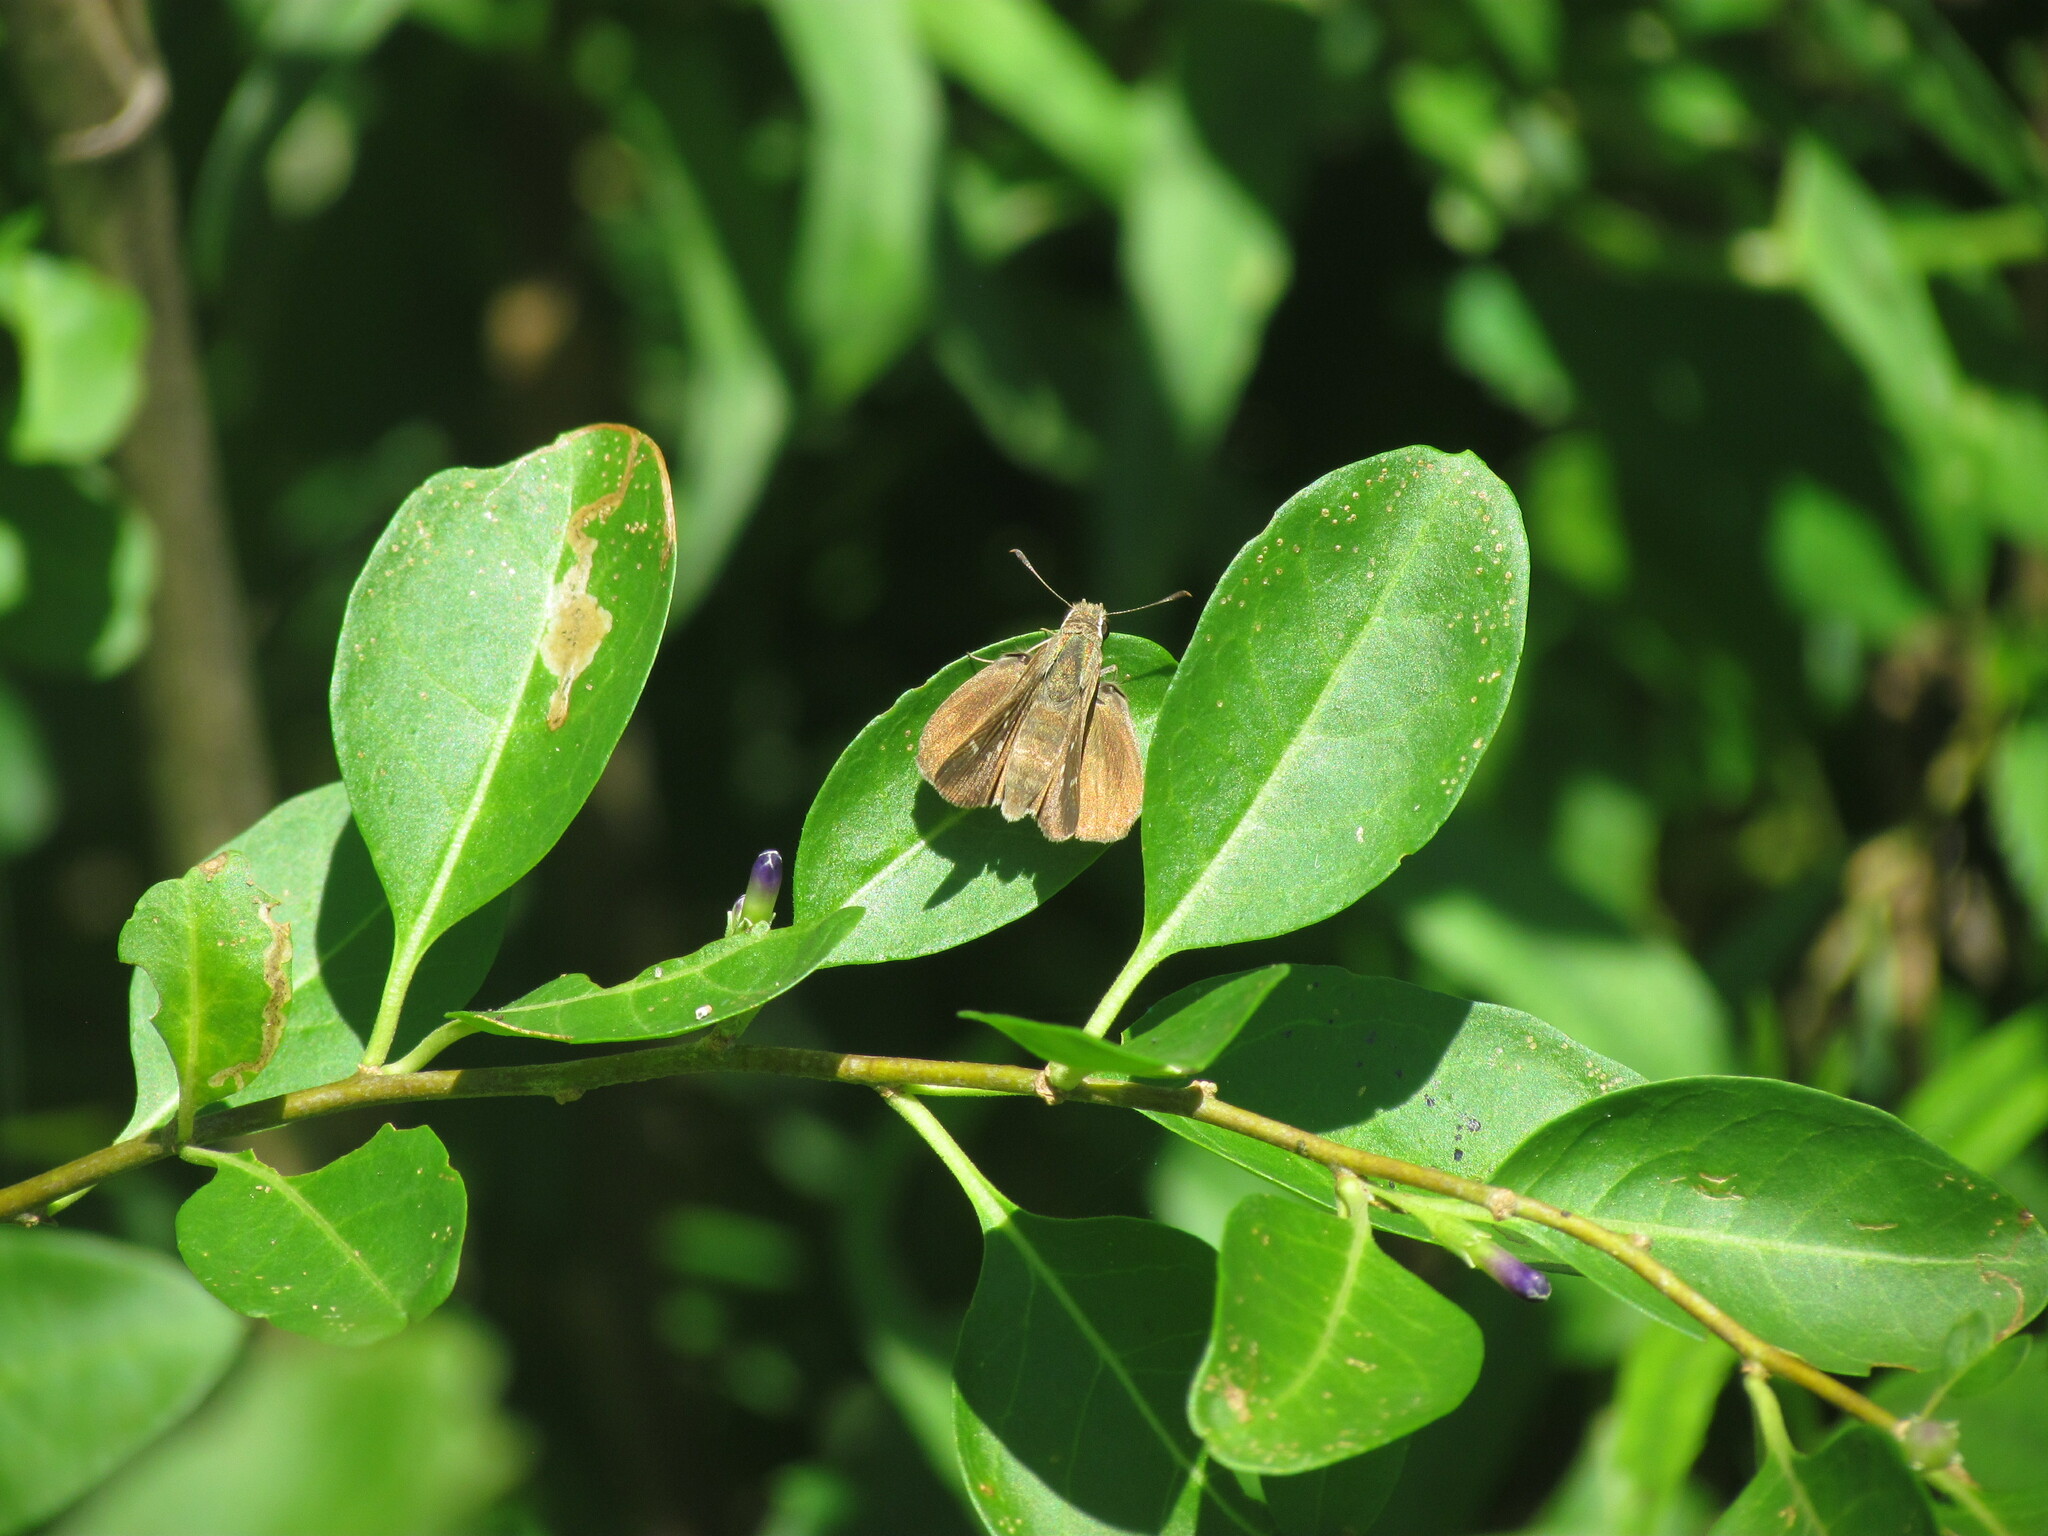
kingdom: Animalia
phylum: Arthropoda
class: Insecta
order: Lepidoptera
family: Hesperiidae
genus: Lerodea
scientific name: Lerodea eufala
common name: Eufala skipper
